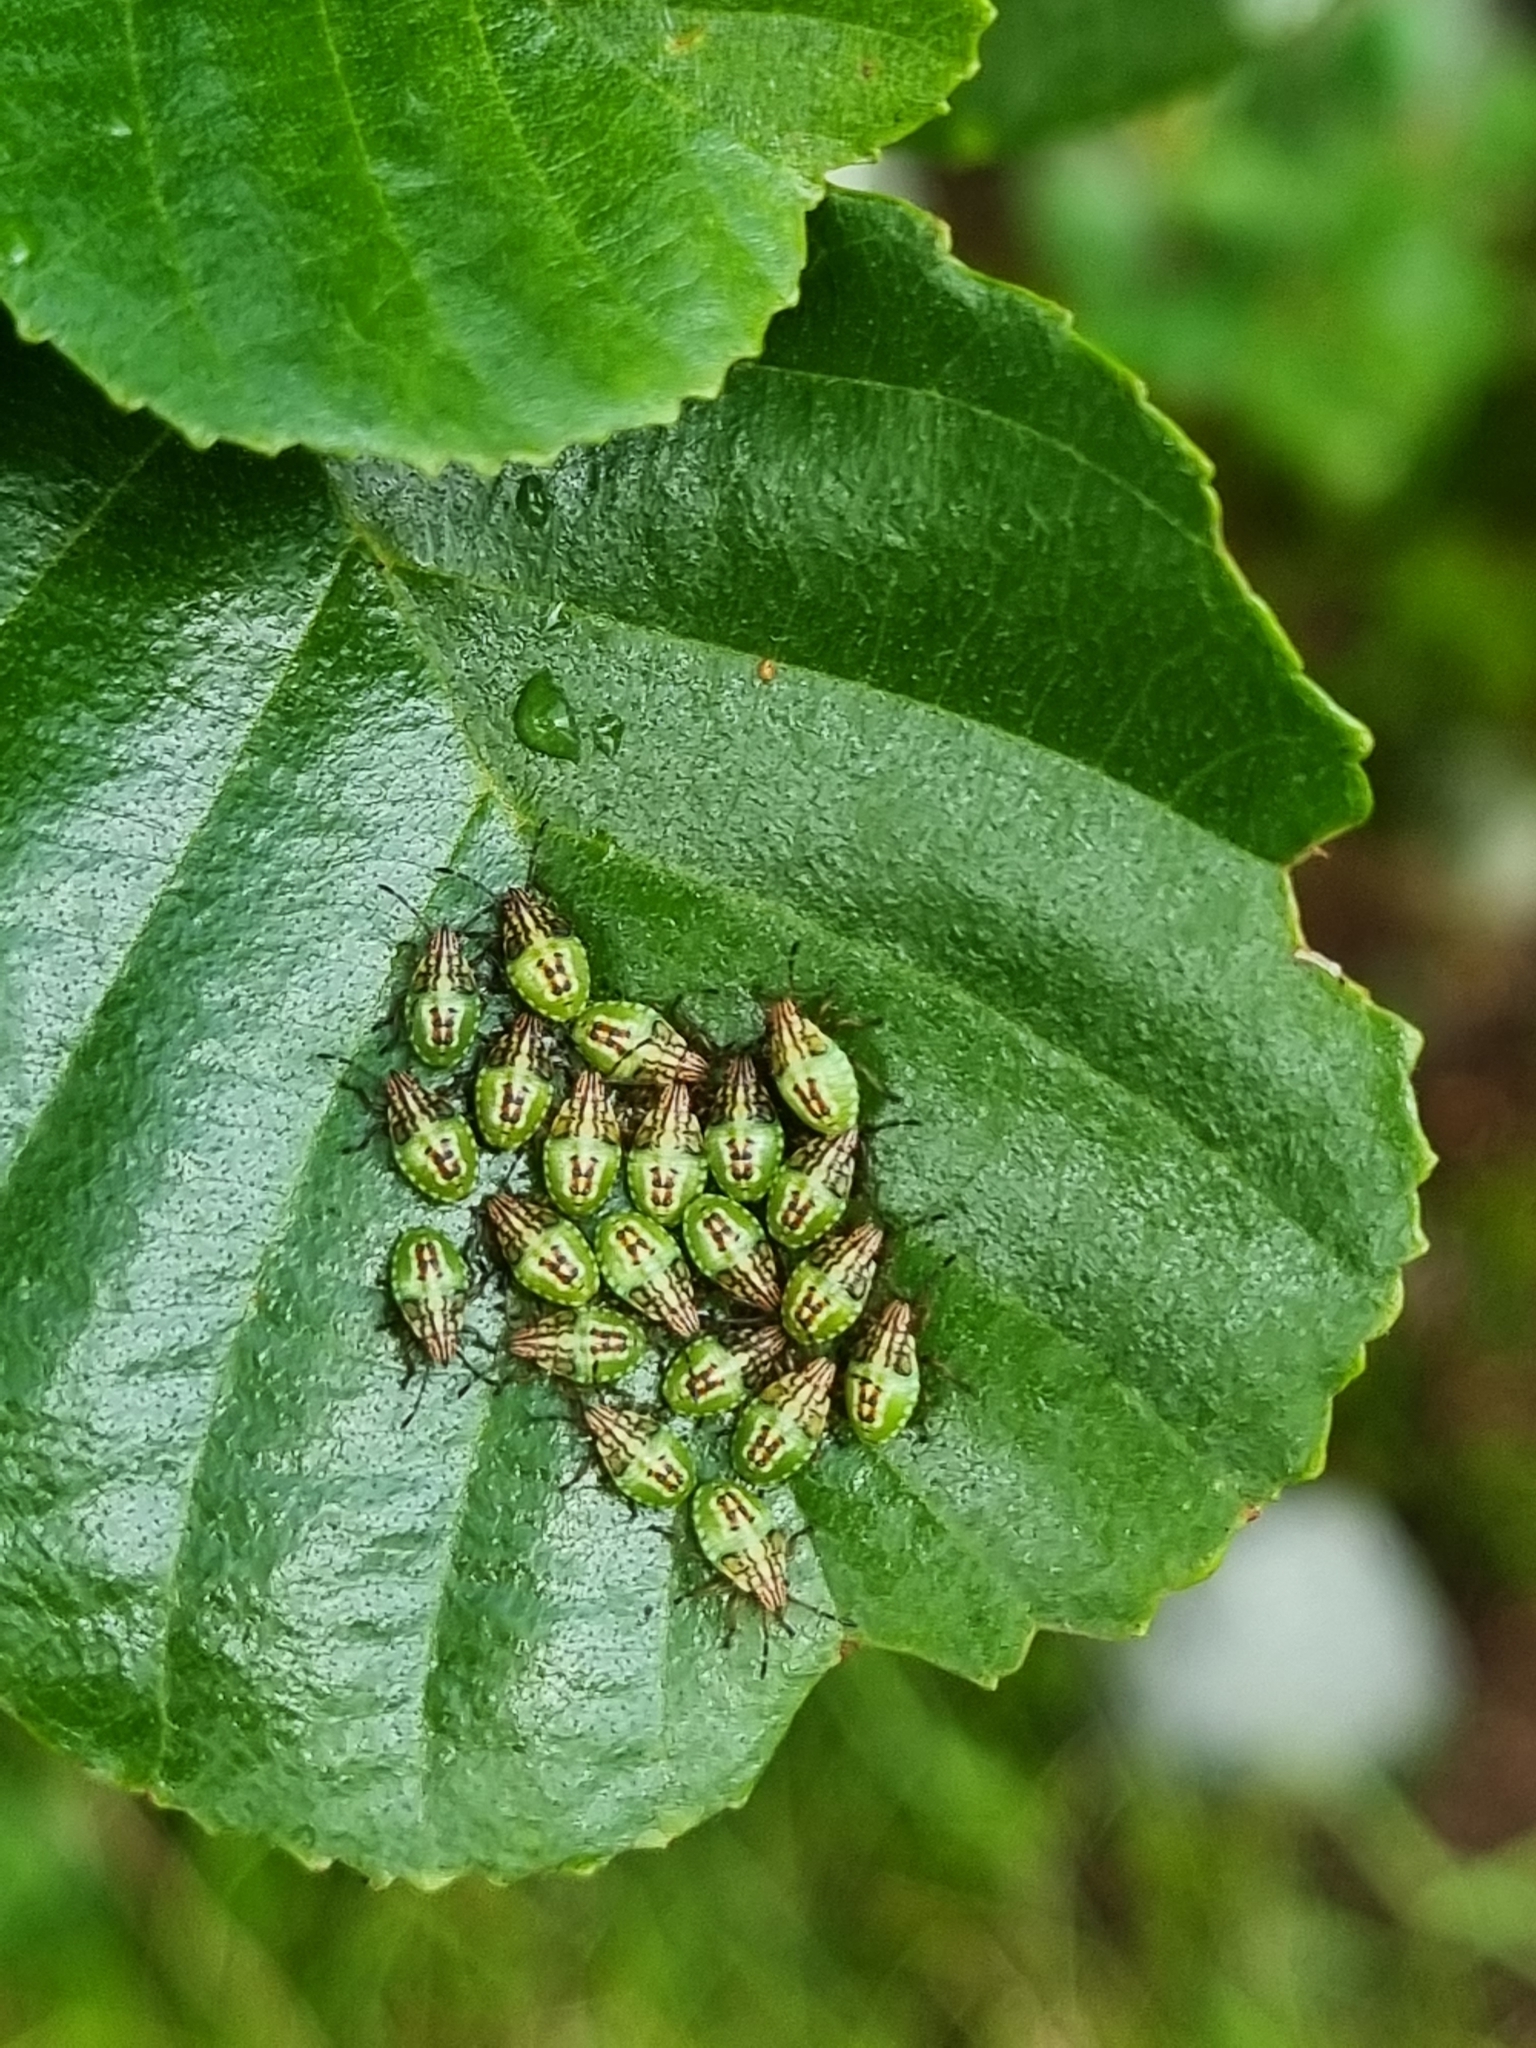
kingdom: Animalia
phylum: Arthropoda
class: Insecta
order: Hemiptera
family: Acanthosomatidae
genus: Elasmucha
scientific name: Elasmucha grisea
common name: Parent bug
